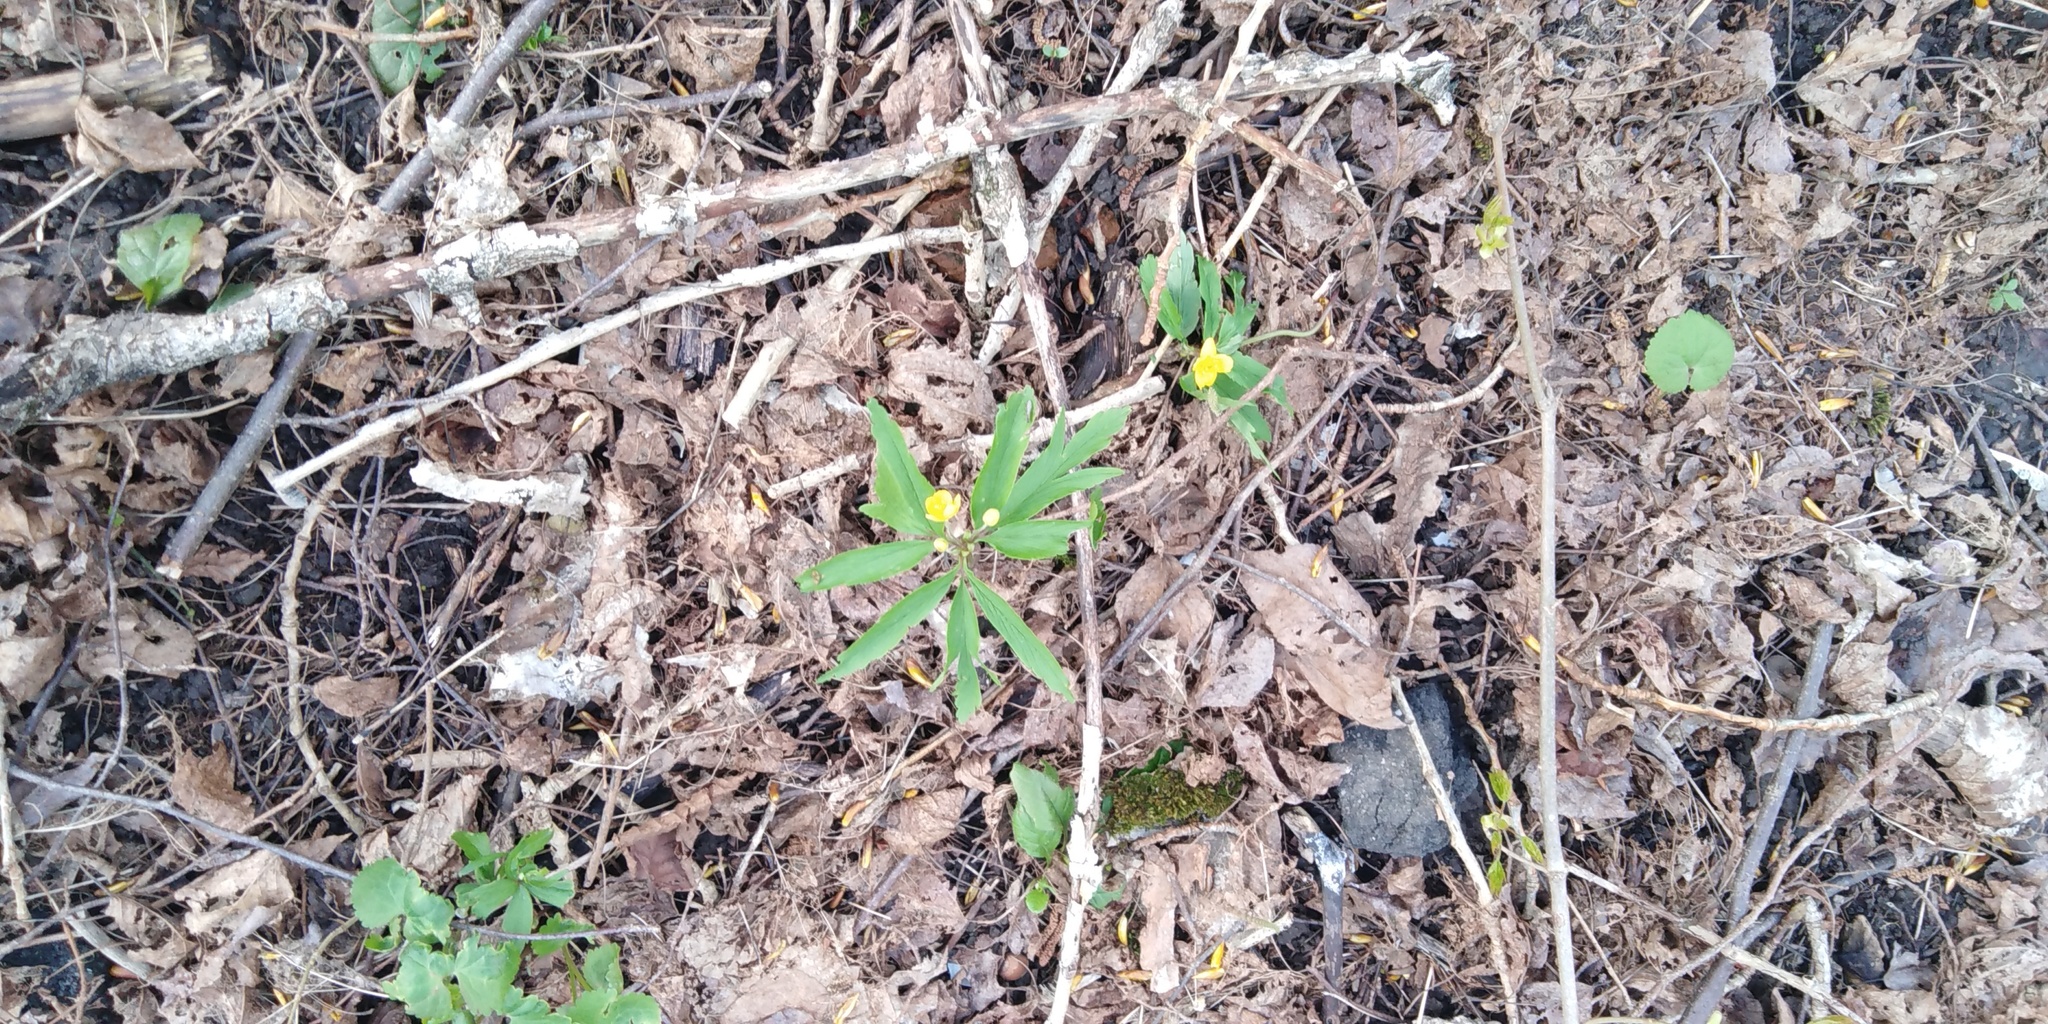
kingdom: Plantae
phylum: Tracheophyta
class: Magnoliopsida
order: Ranunculales
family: Ranunculaceae
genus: Anemone
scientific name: Anemone ranunculoides
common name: Yellow anemone
